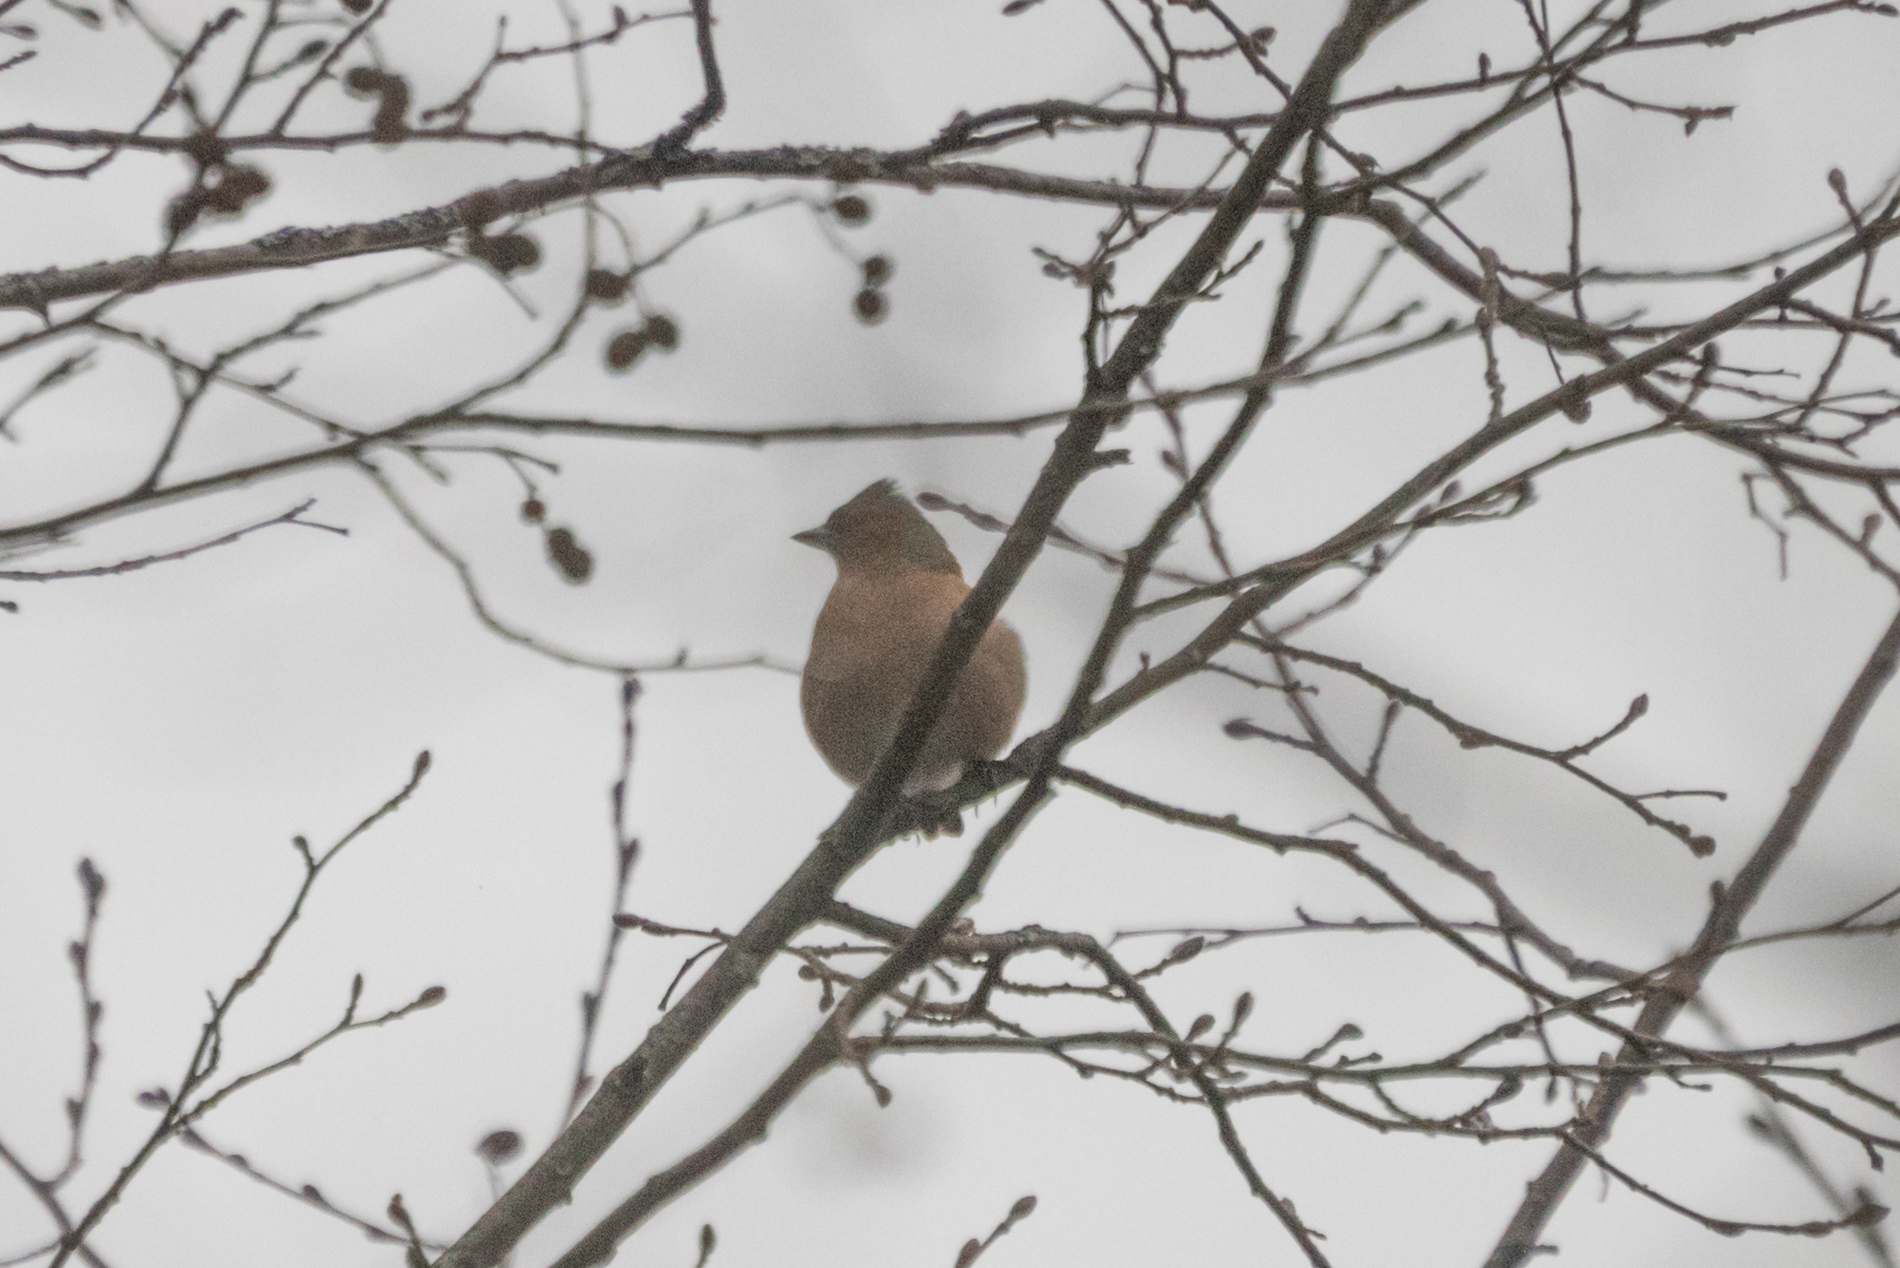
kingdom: Animalia
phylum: Chordata
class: Aves
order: Passeriformes
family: Fringillidae
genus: Fringilla
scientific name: Fringilla coelebs
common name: Common chaffinch
